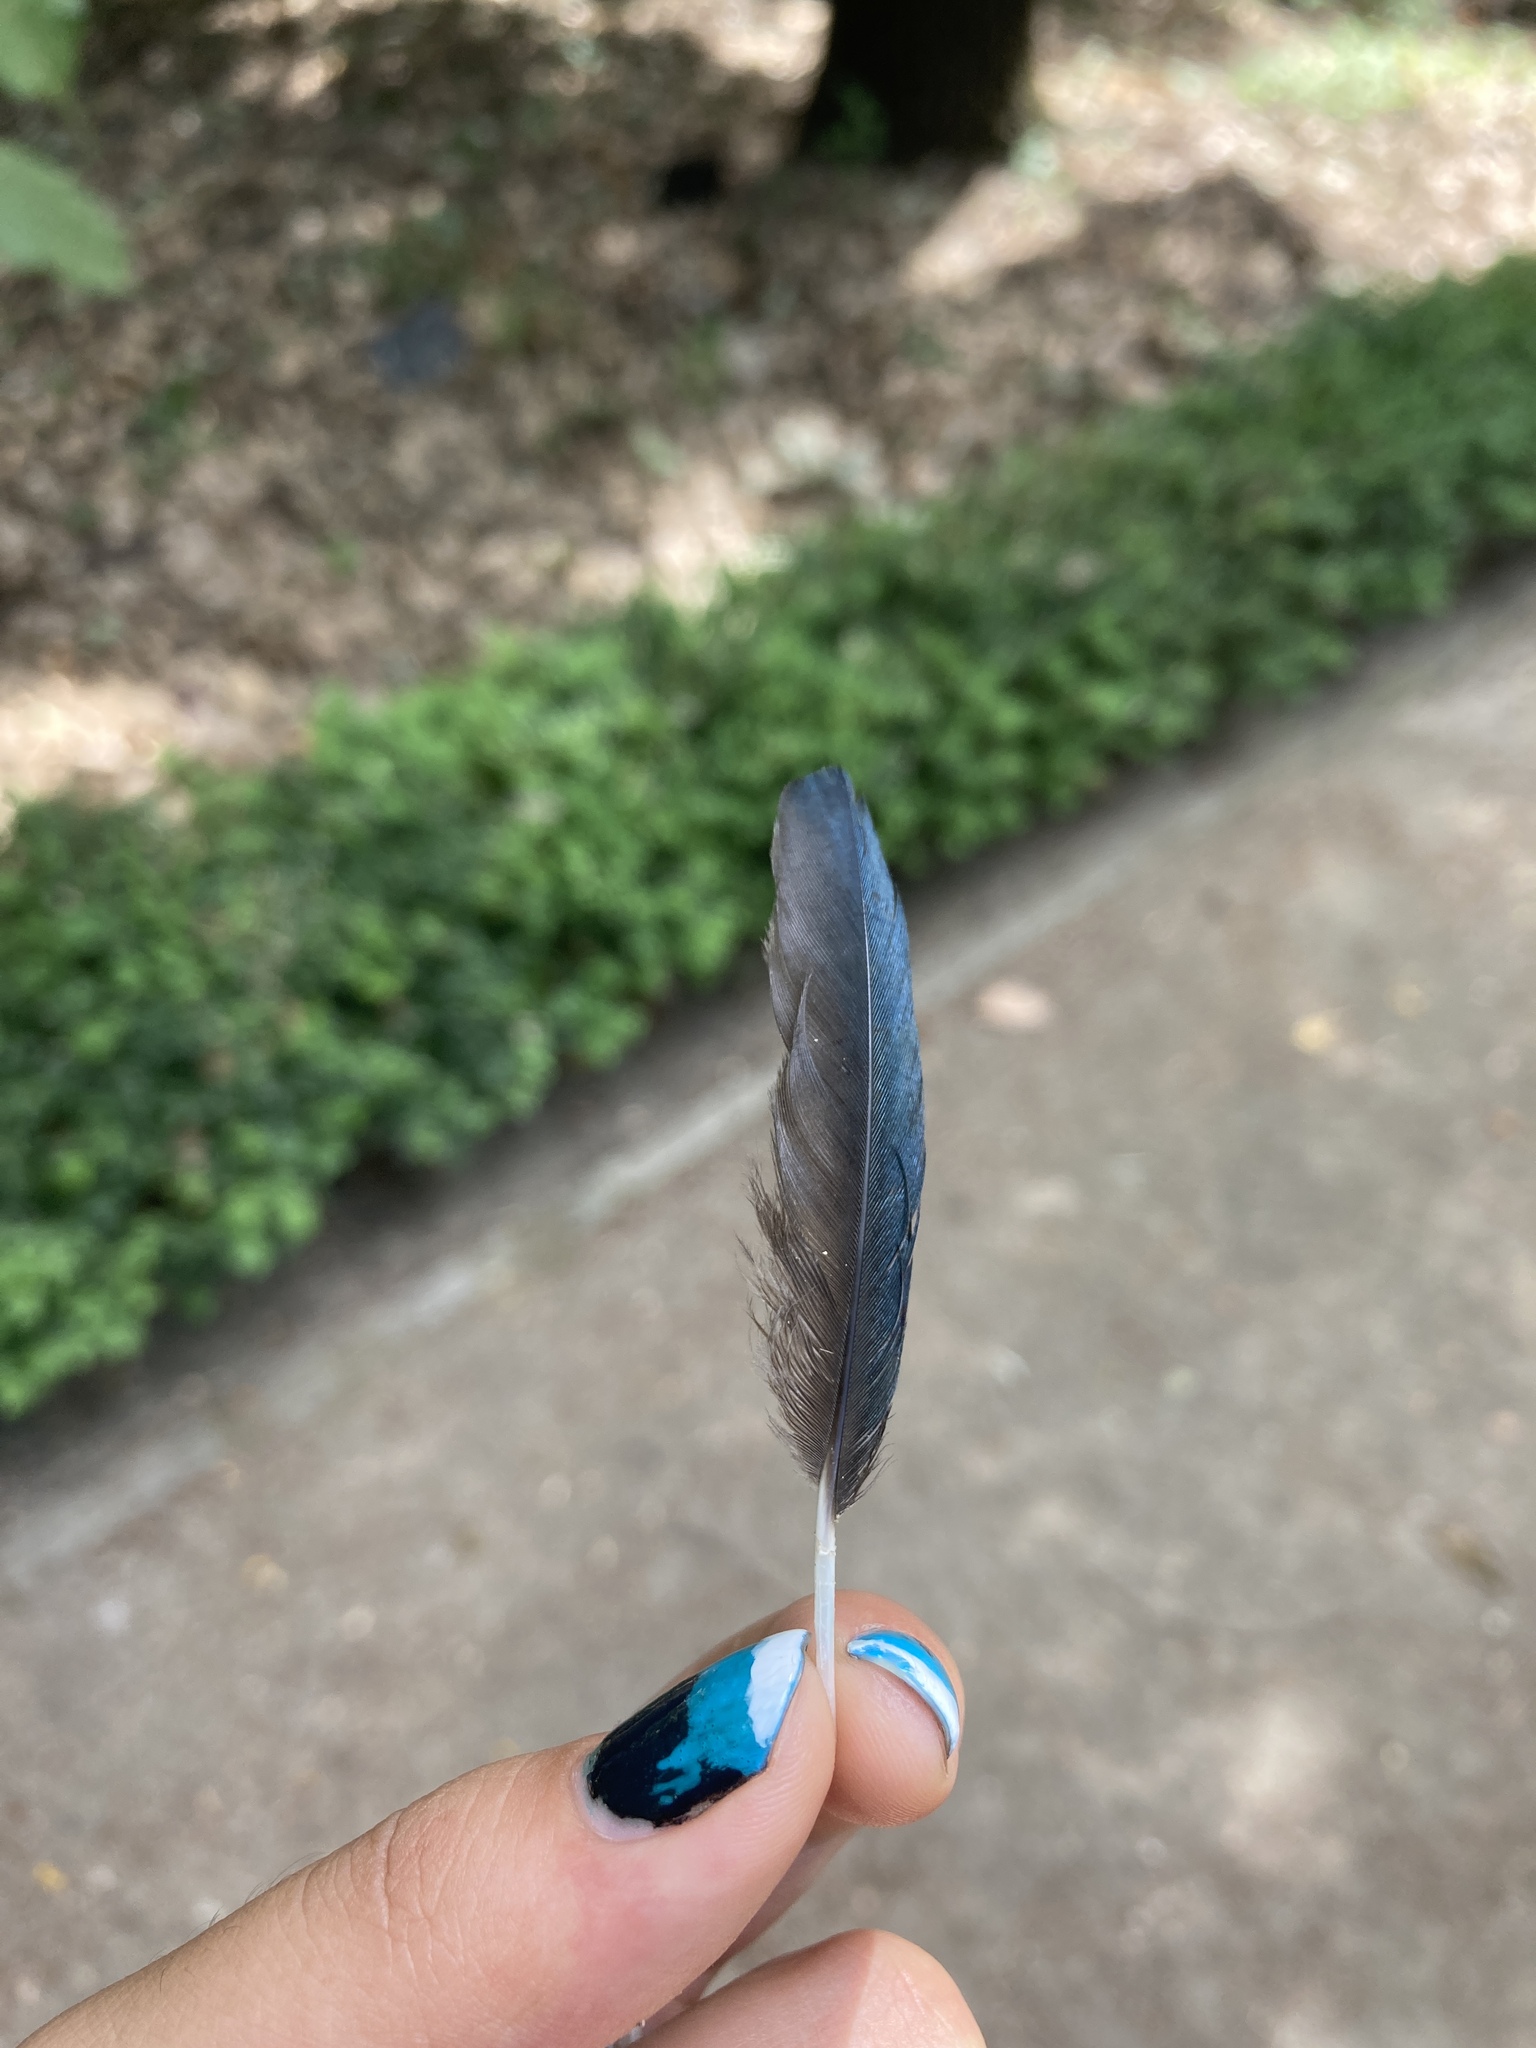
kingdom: Animalia
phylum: Chordata
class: Aves
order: Passeriformes
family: Corvidae
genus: Pica
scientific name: Pica pica
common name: Eurasian magpie
